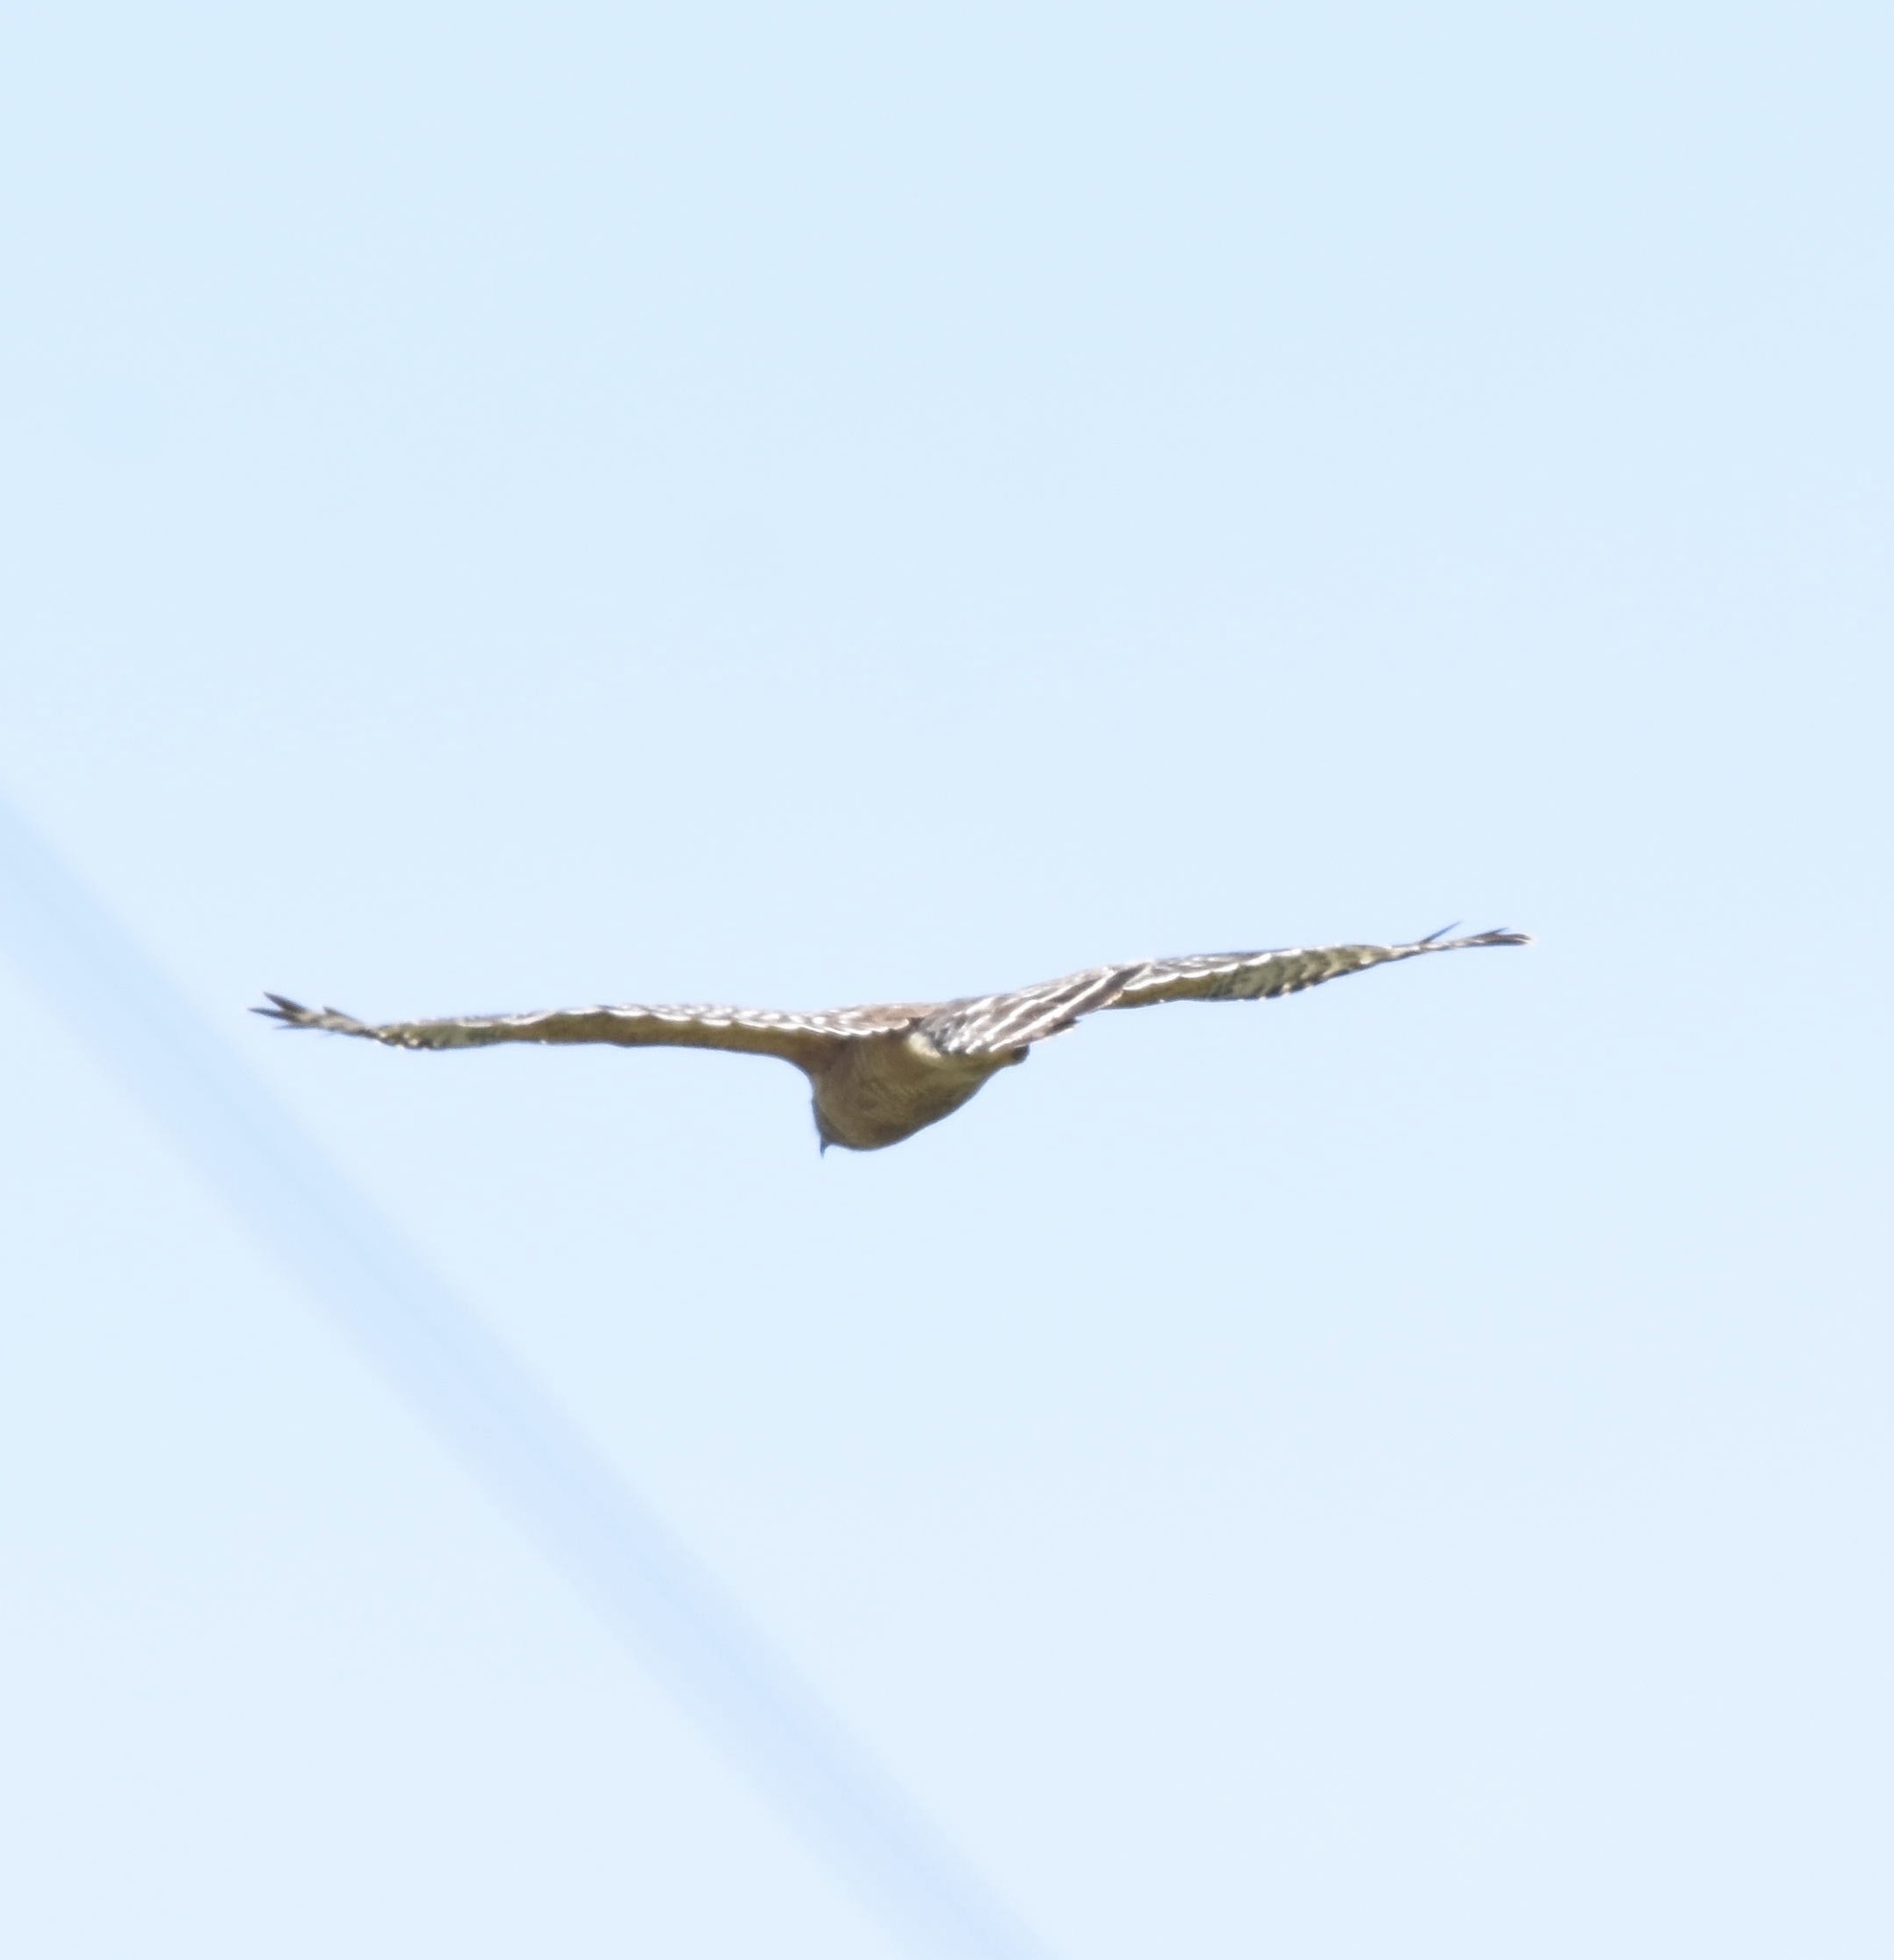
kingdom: Animalia
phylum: Chordata
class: Aves
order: Accipitriformes
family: Accipitridae
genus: Buteo
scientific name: Buteo lineatus
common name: Red-shouldered hawk
